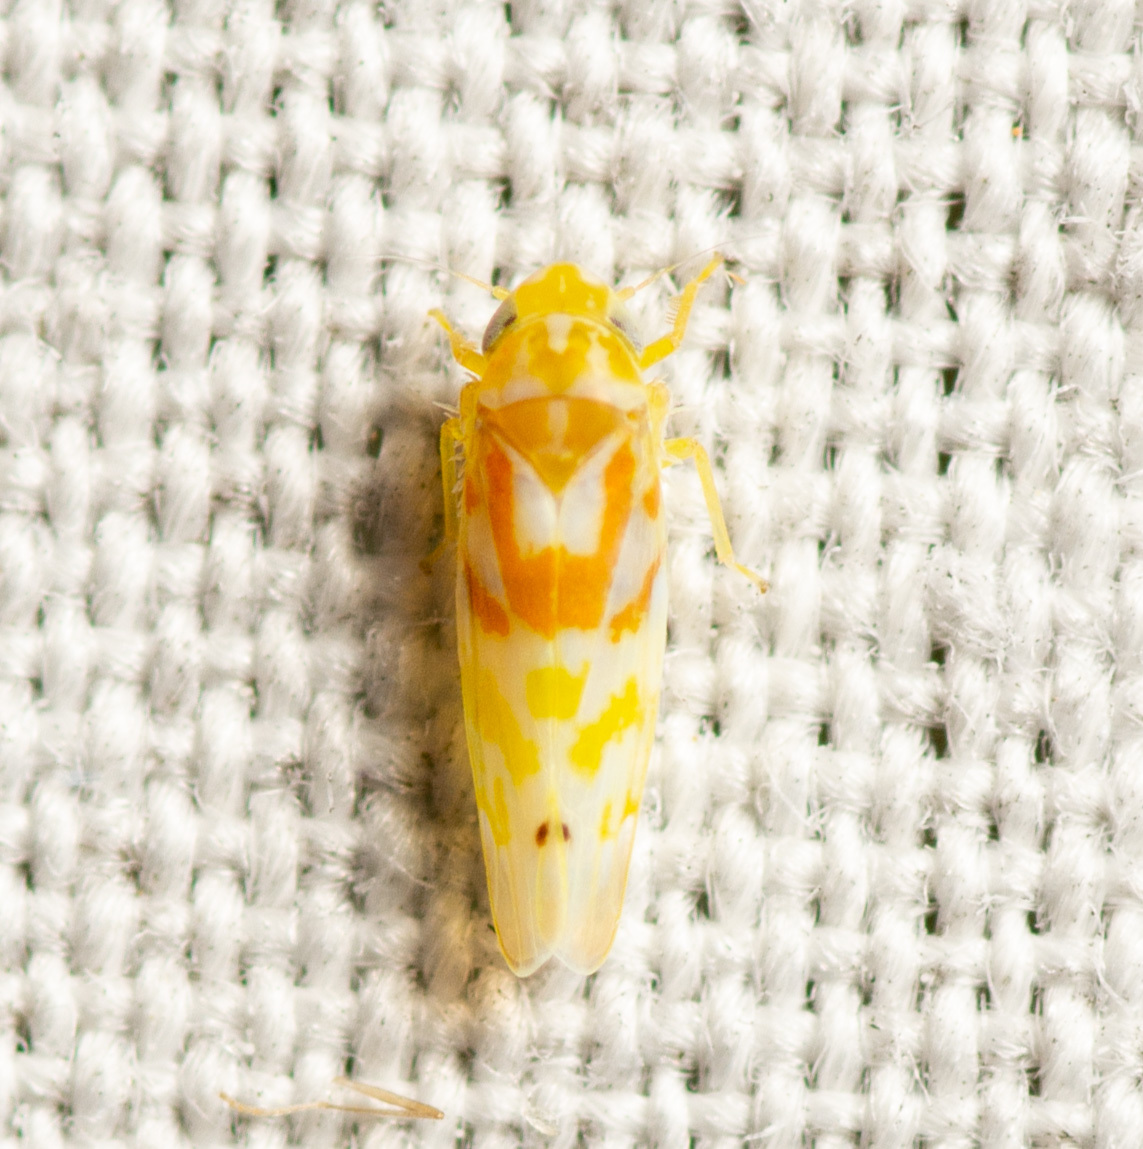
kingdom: Animalia
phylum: Arthropoda
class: Insecta
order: Hemiptera
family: Cicadellidae
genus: Eratoneura
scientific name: Eratoneura affinis
